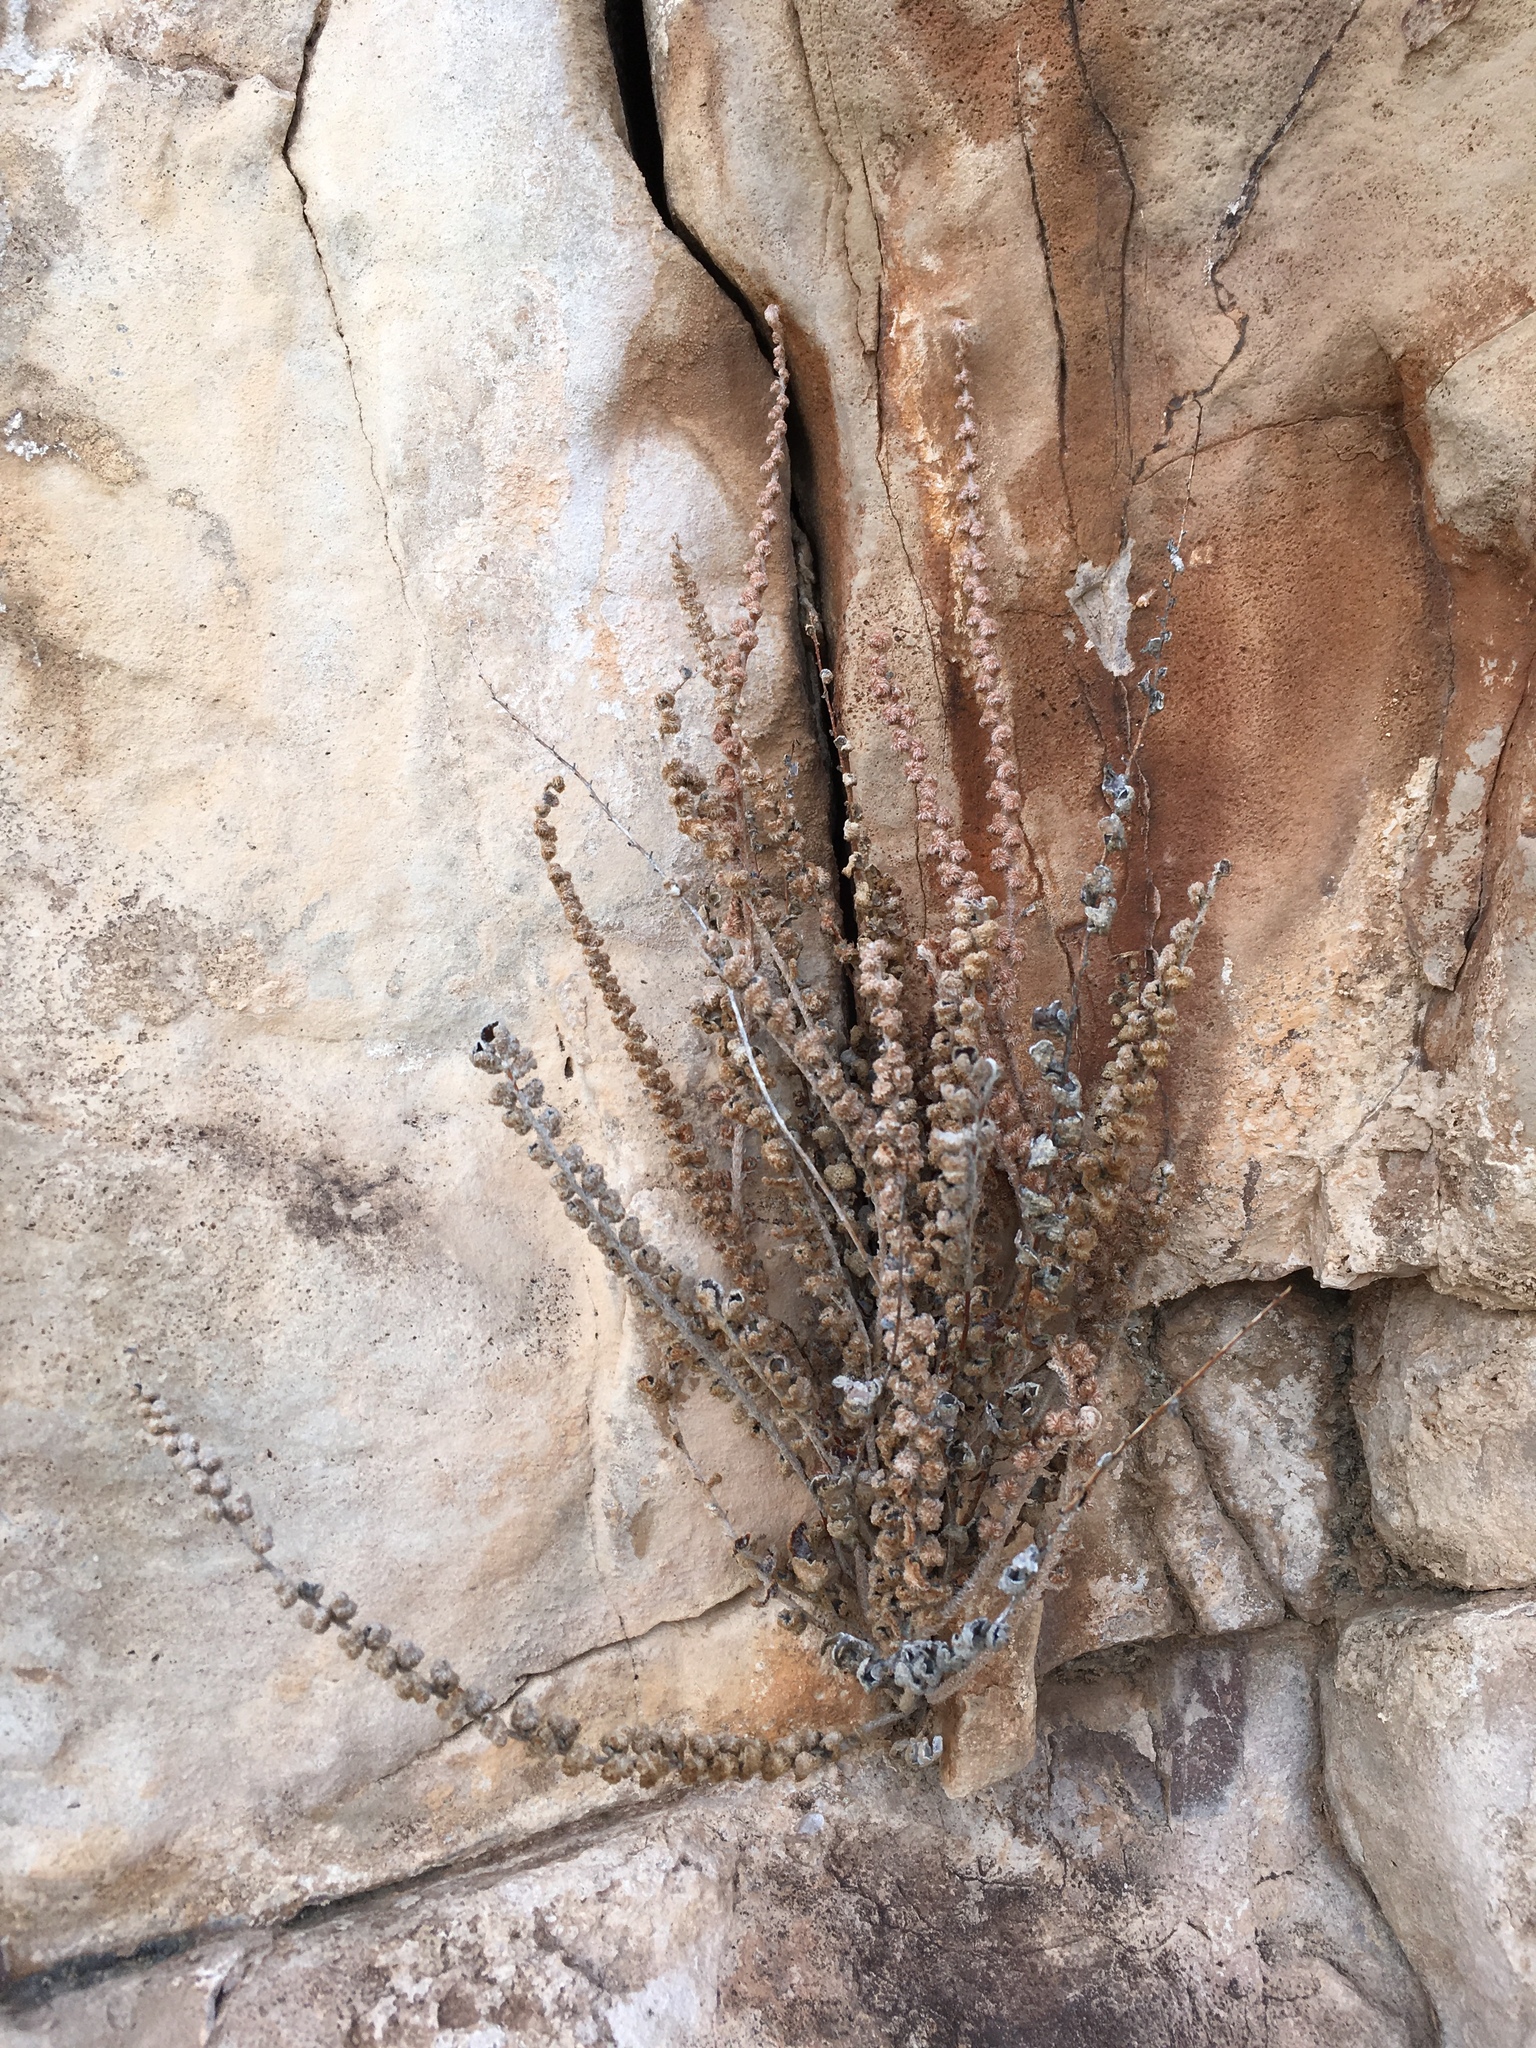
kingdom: Plantae
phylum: Tracheophyta
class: Polypodiopsida
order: Polypodiales
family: Pteridaceae
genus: Astrolepis
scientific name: Astrolepis integerrima
